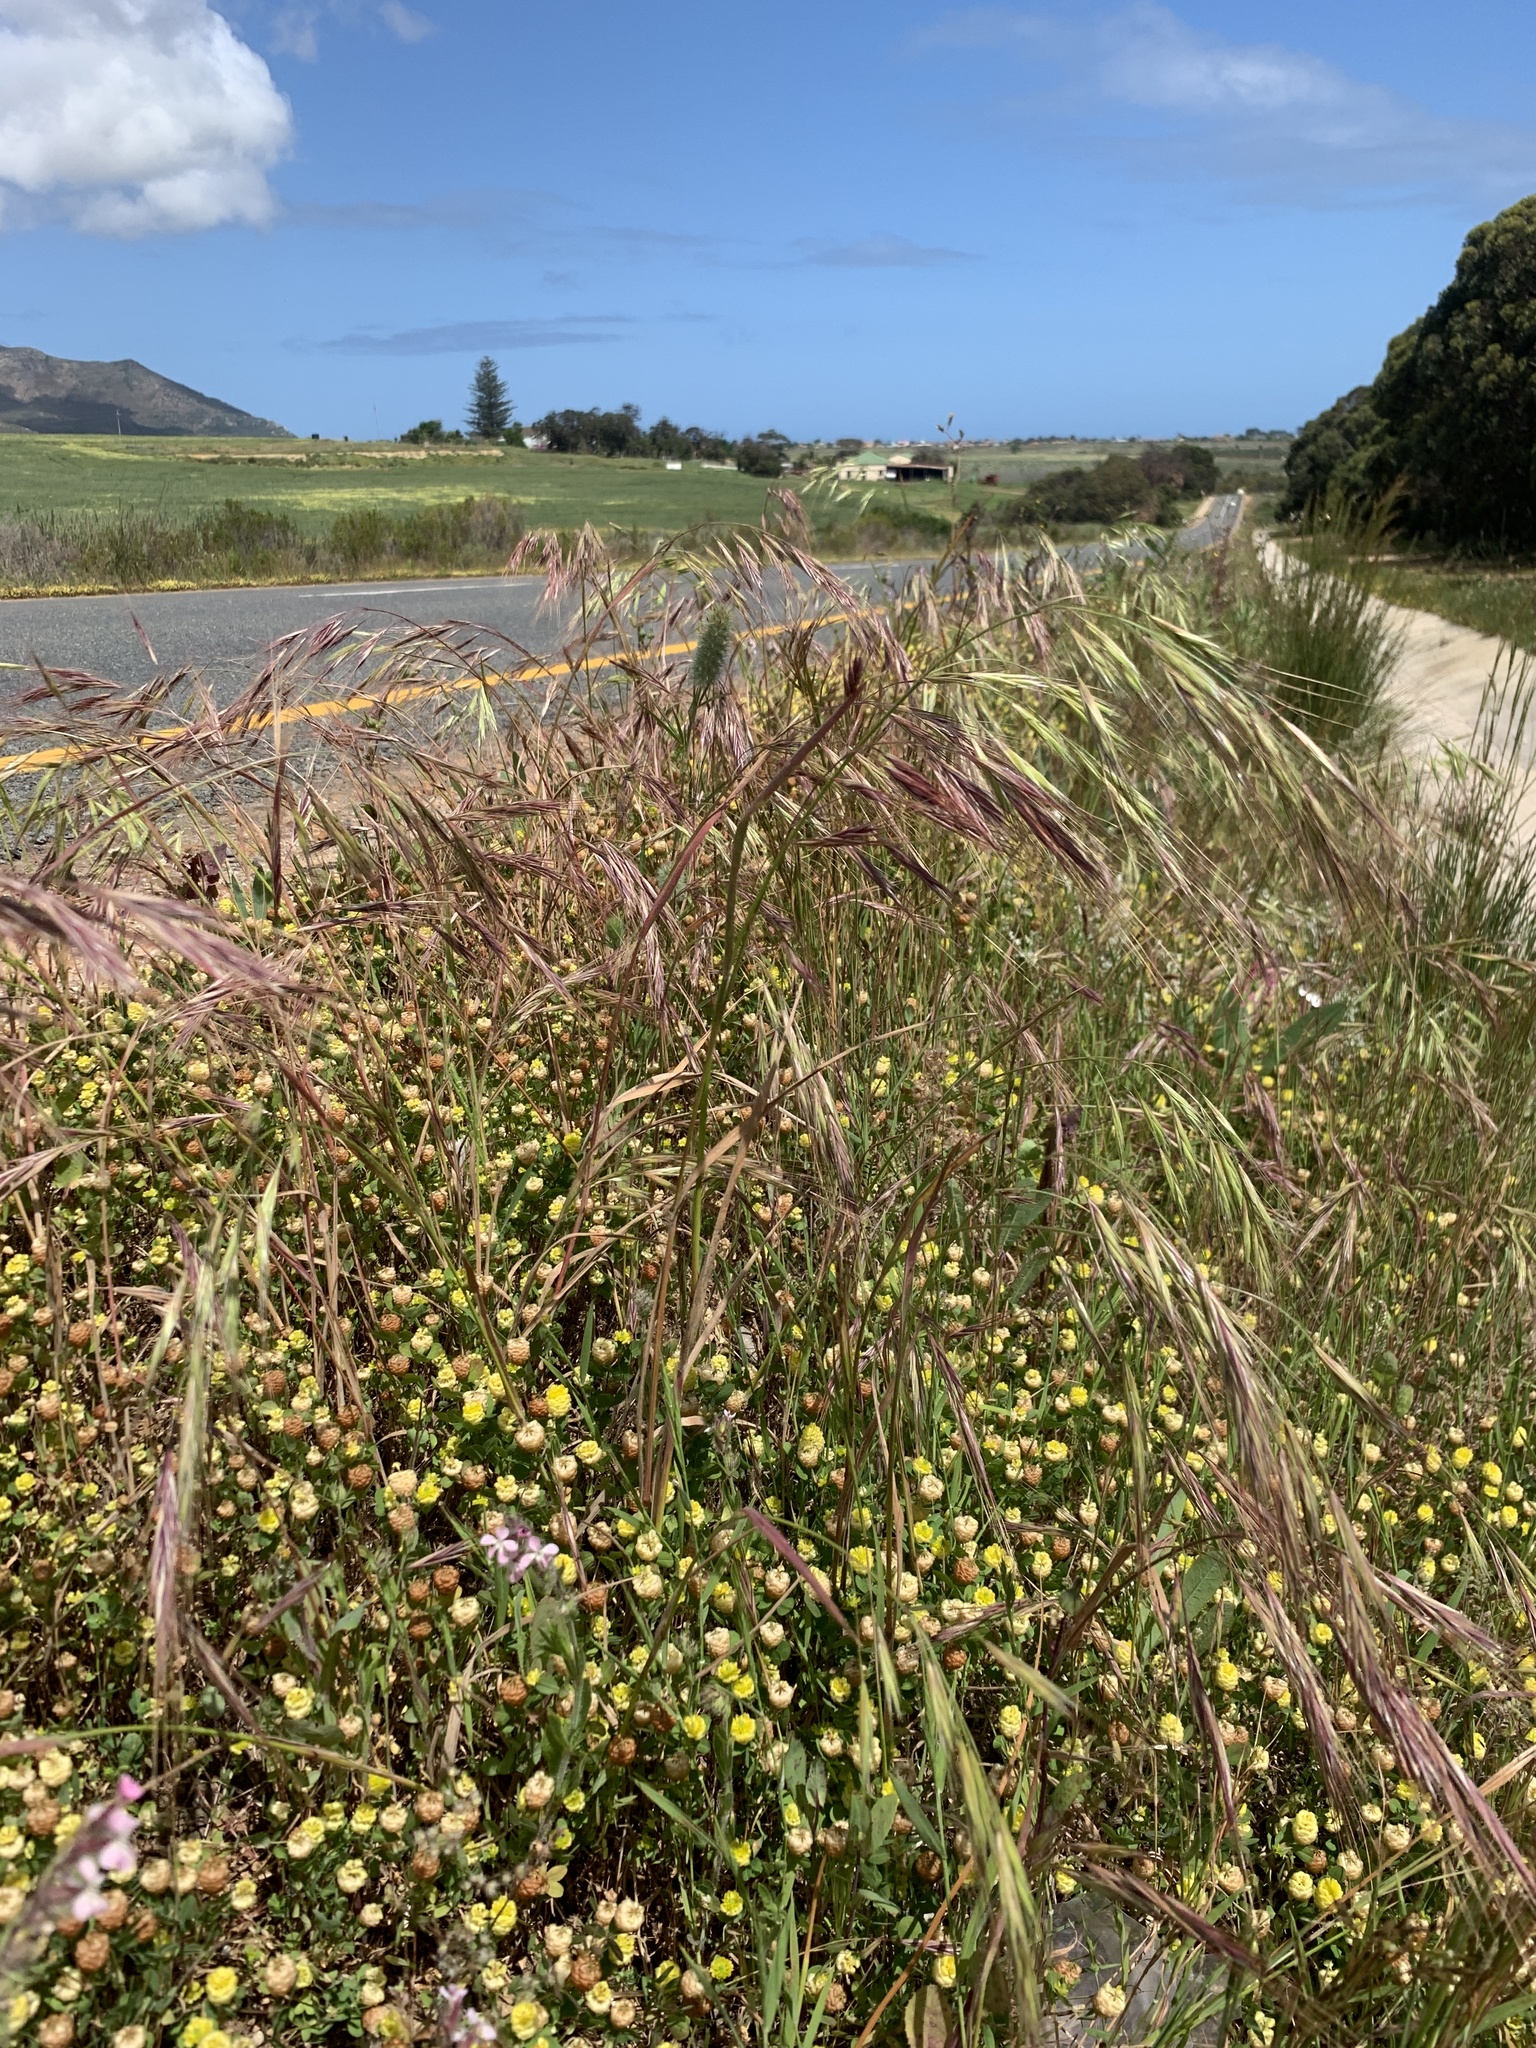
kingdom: Plantae
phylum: Tracheophyta
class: Liliopsida
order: Poales
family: Poaceae
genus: Bromus
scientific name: Bromus diandrus
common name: Ripgut brome
